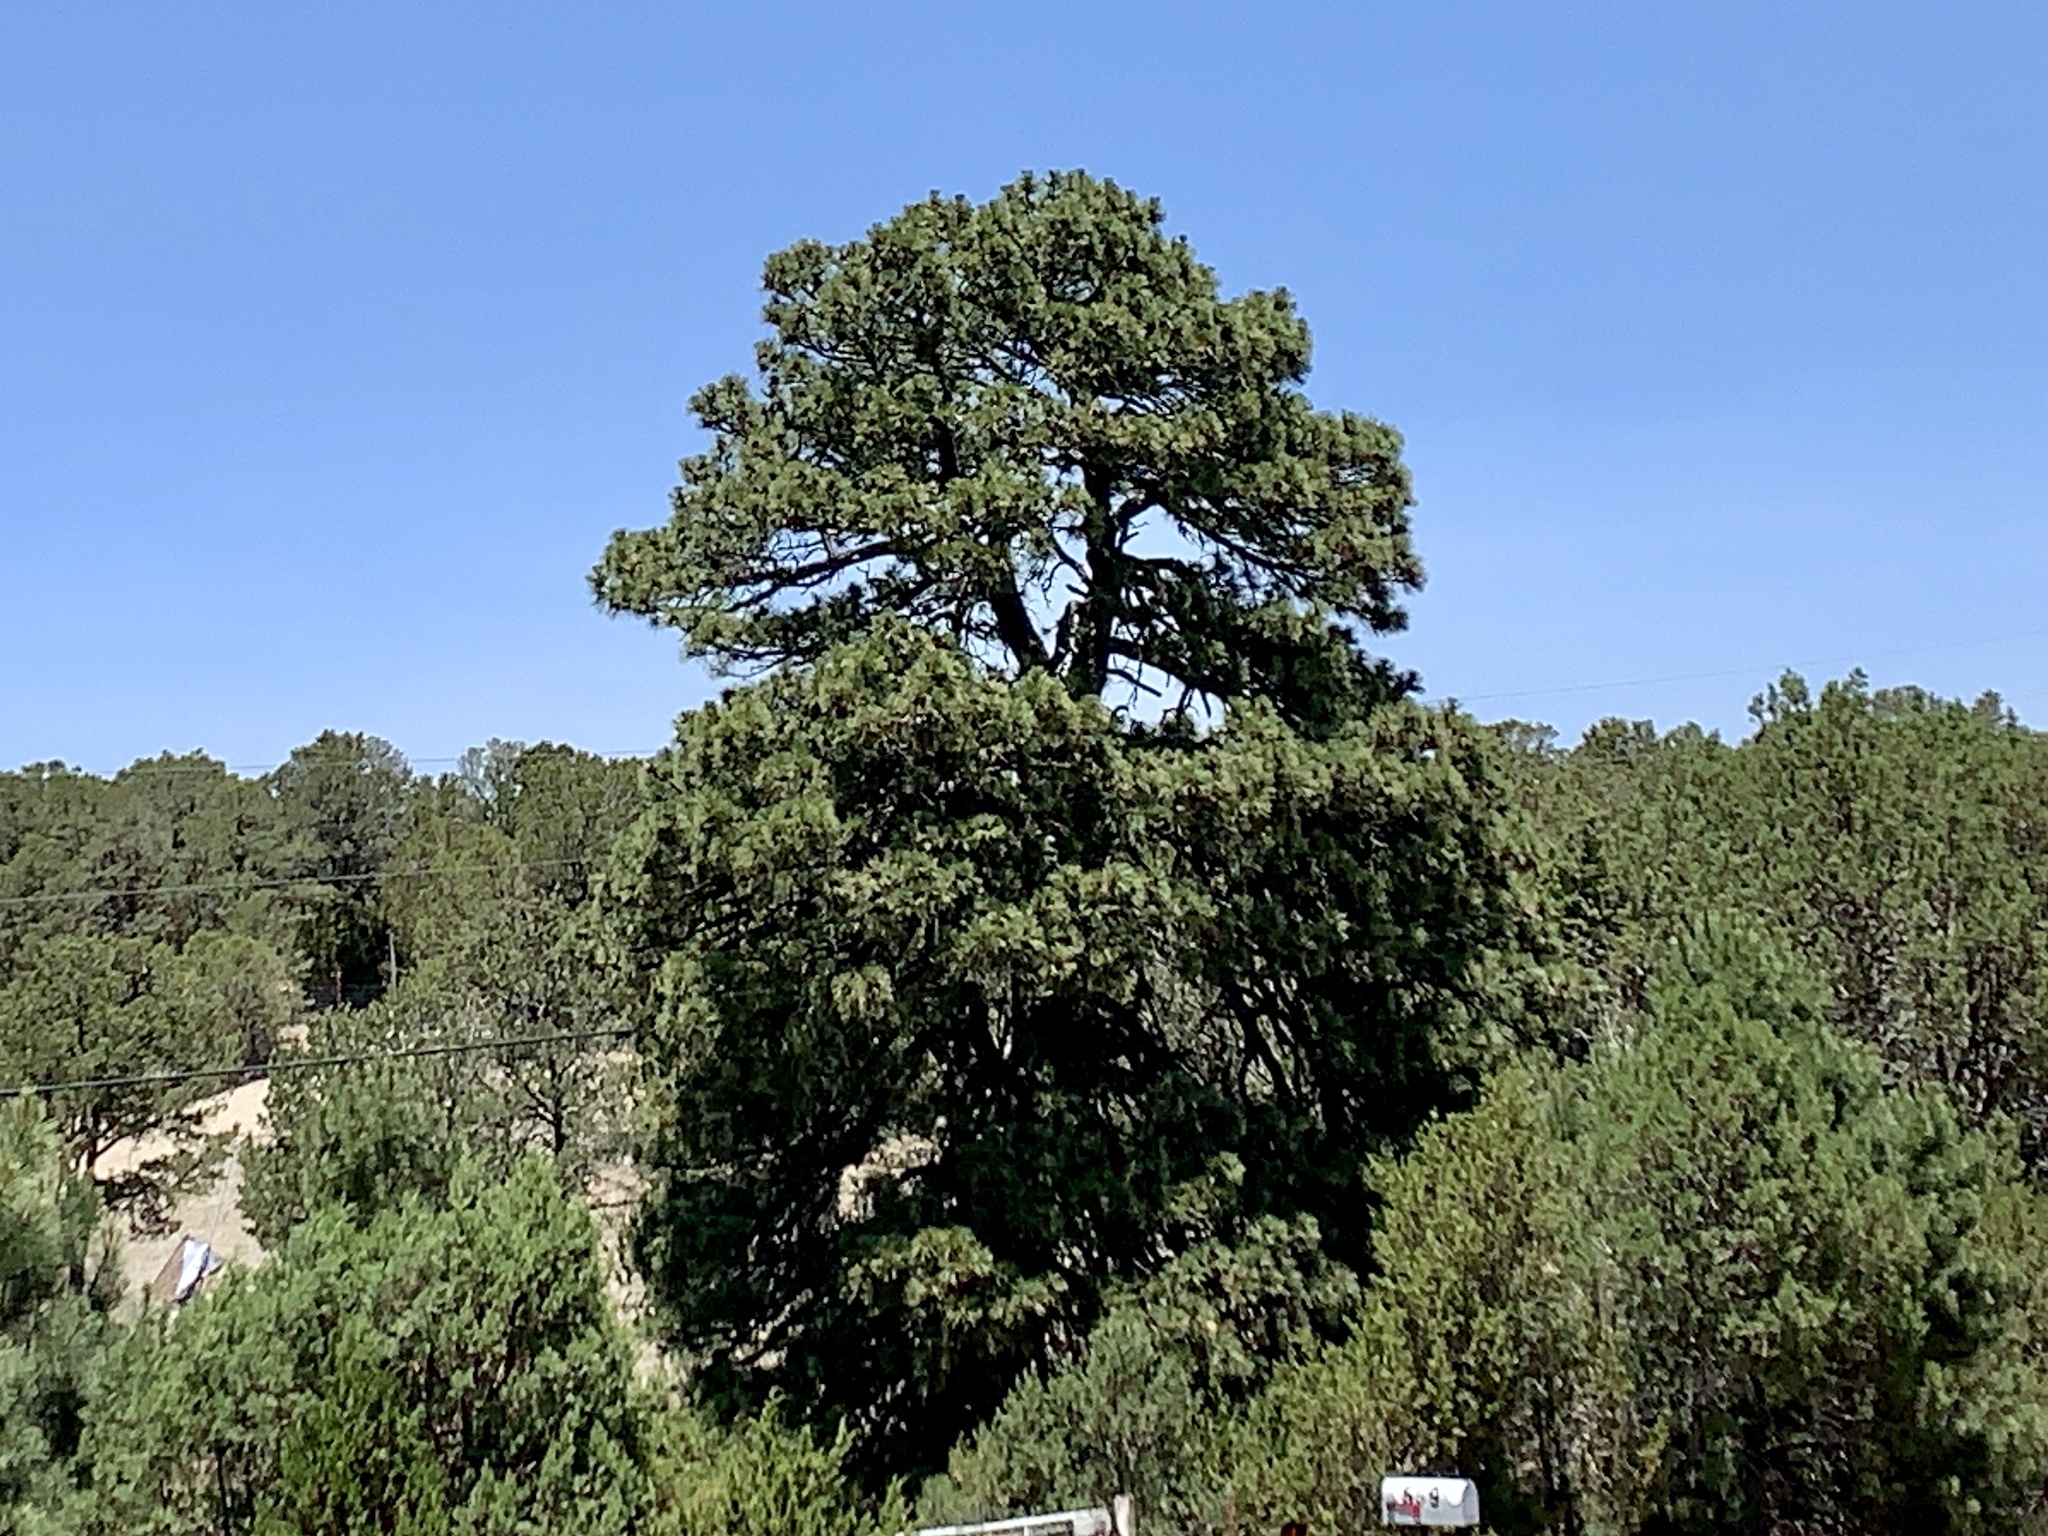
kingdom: Plantae
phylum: Tracheophyta
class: Pinopsida
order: Pinales
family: Pinaceae
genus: Pinus
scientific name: Pinus ponderosa
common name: Western yellow-pine
